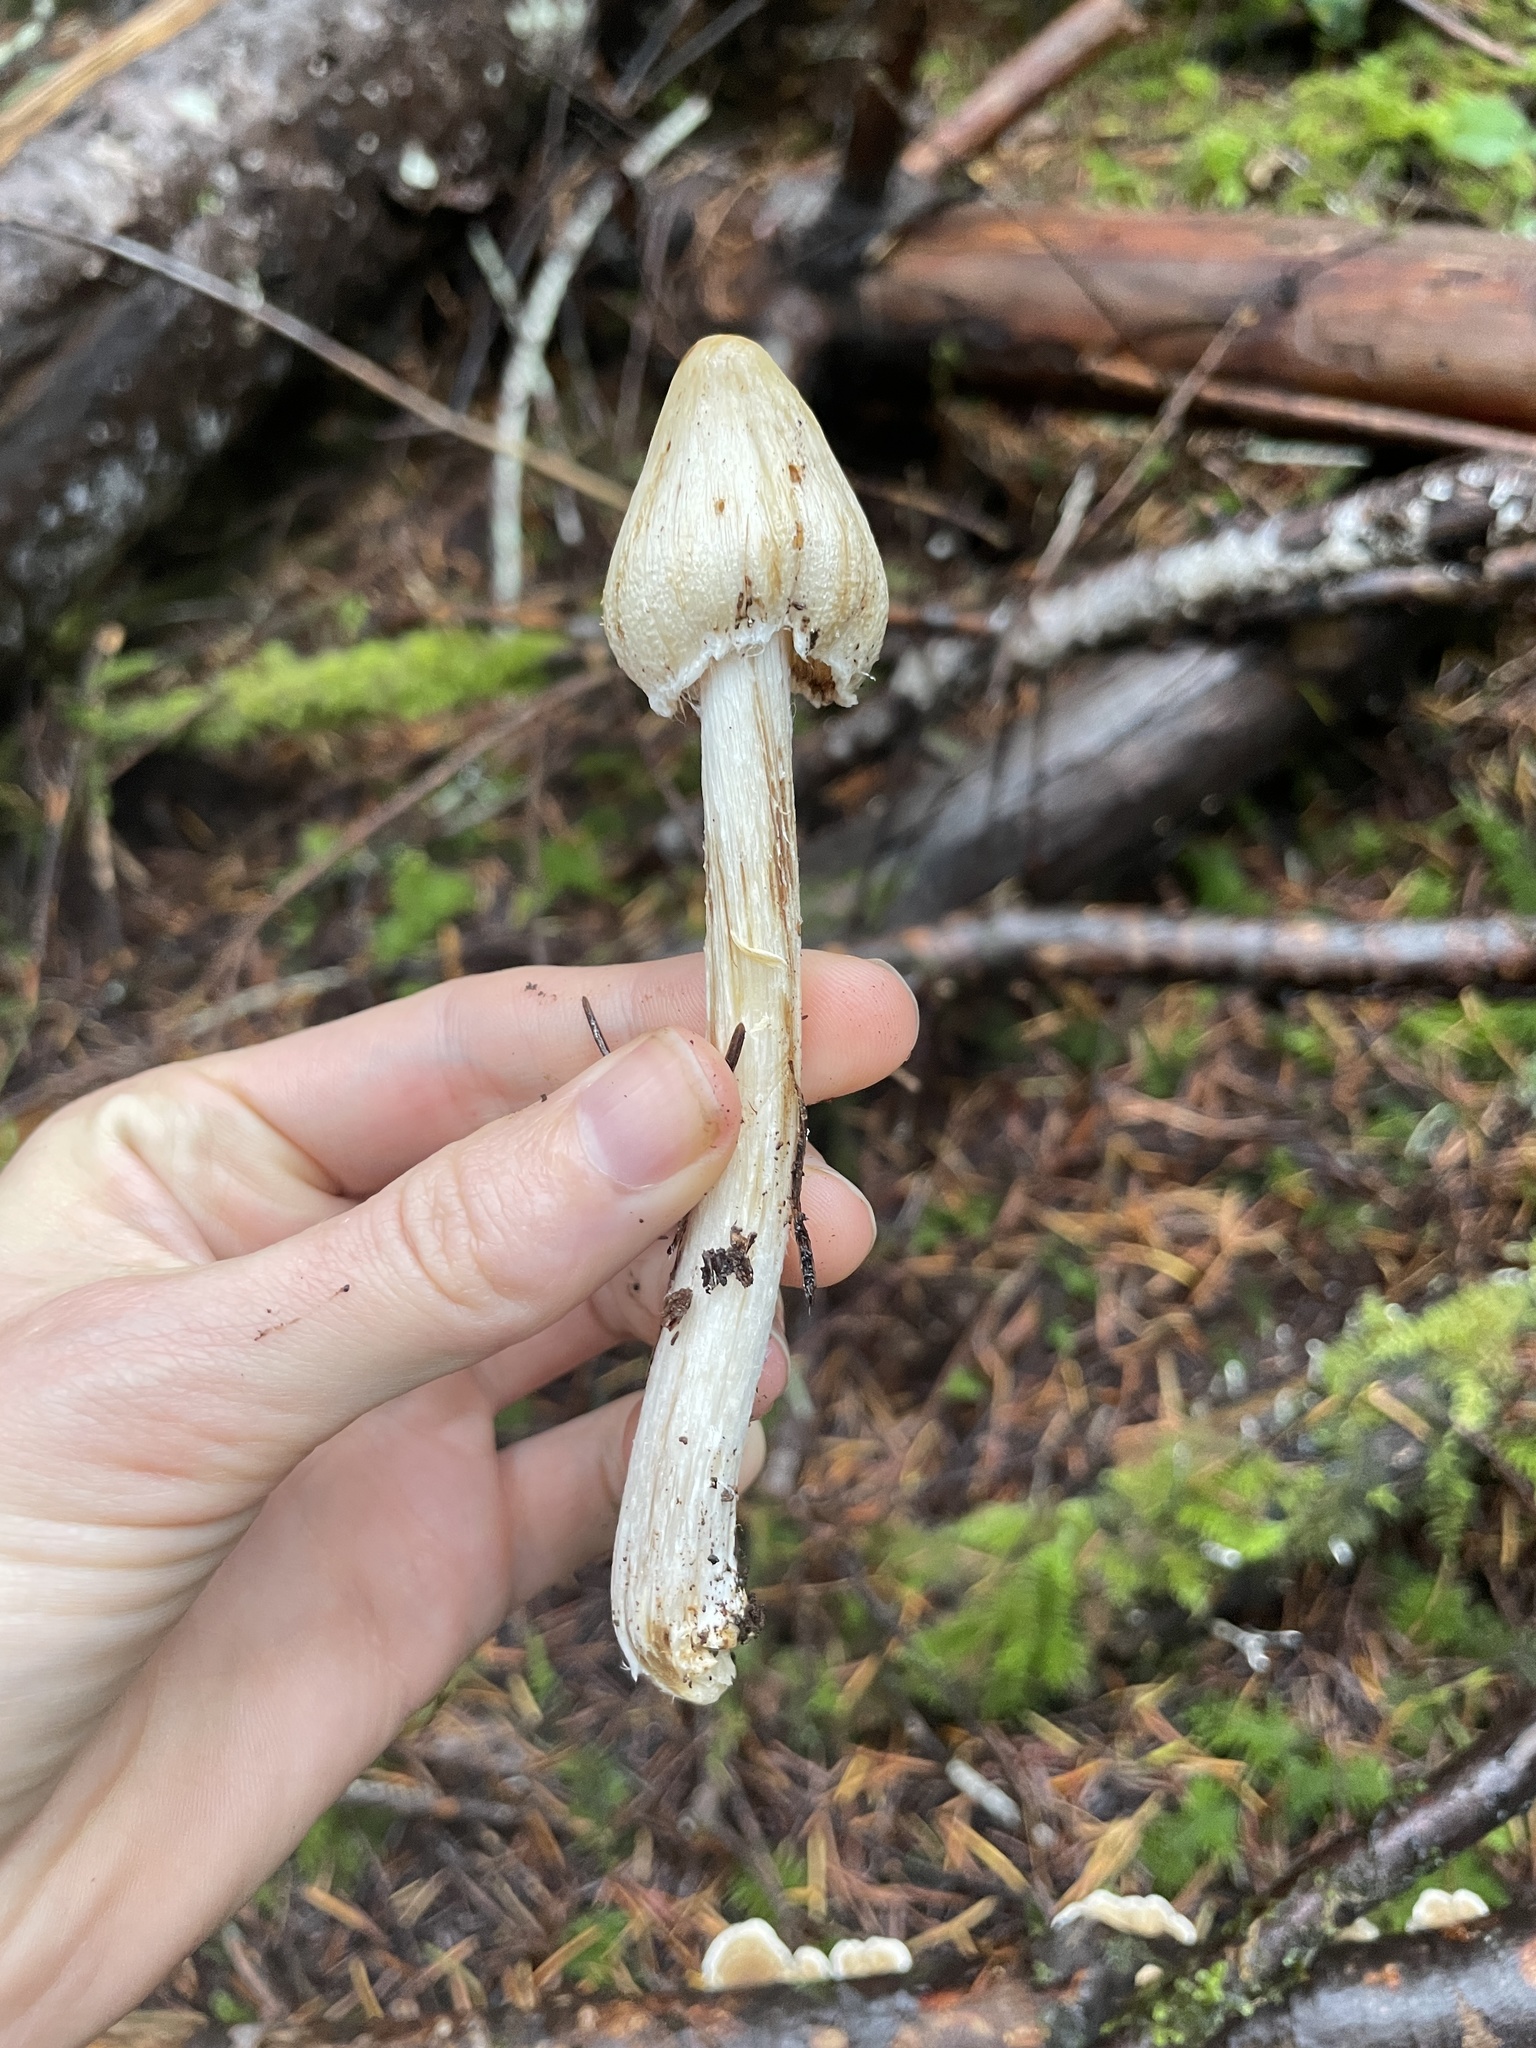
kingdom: Fungi
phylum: Basidiomycota
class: Agaricomycetes
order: Agaricales
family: Inocybaceae
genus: Pseudosperma
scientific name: Pseudosperma sororium
